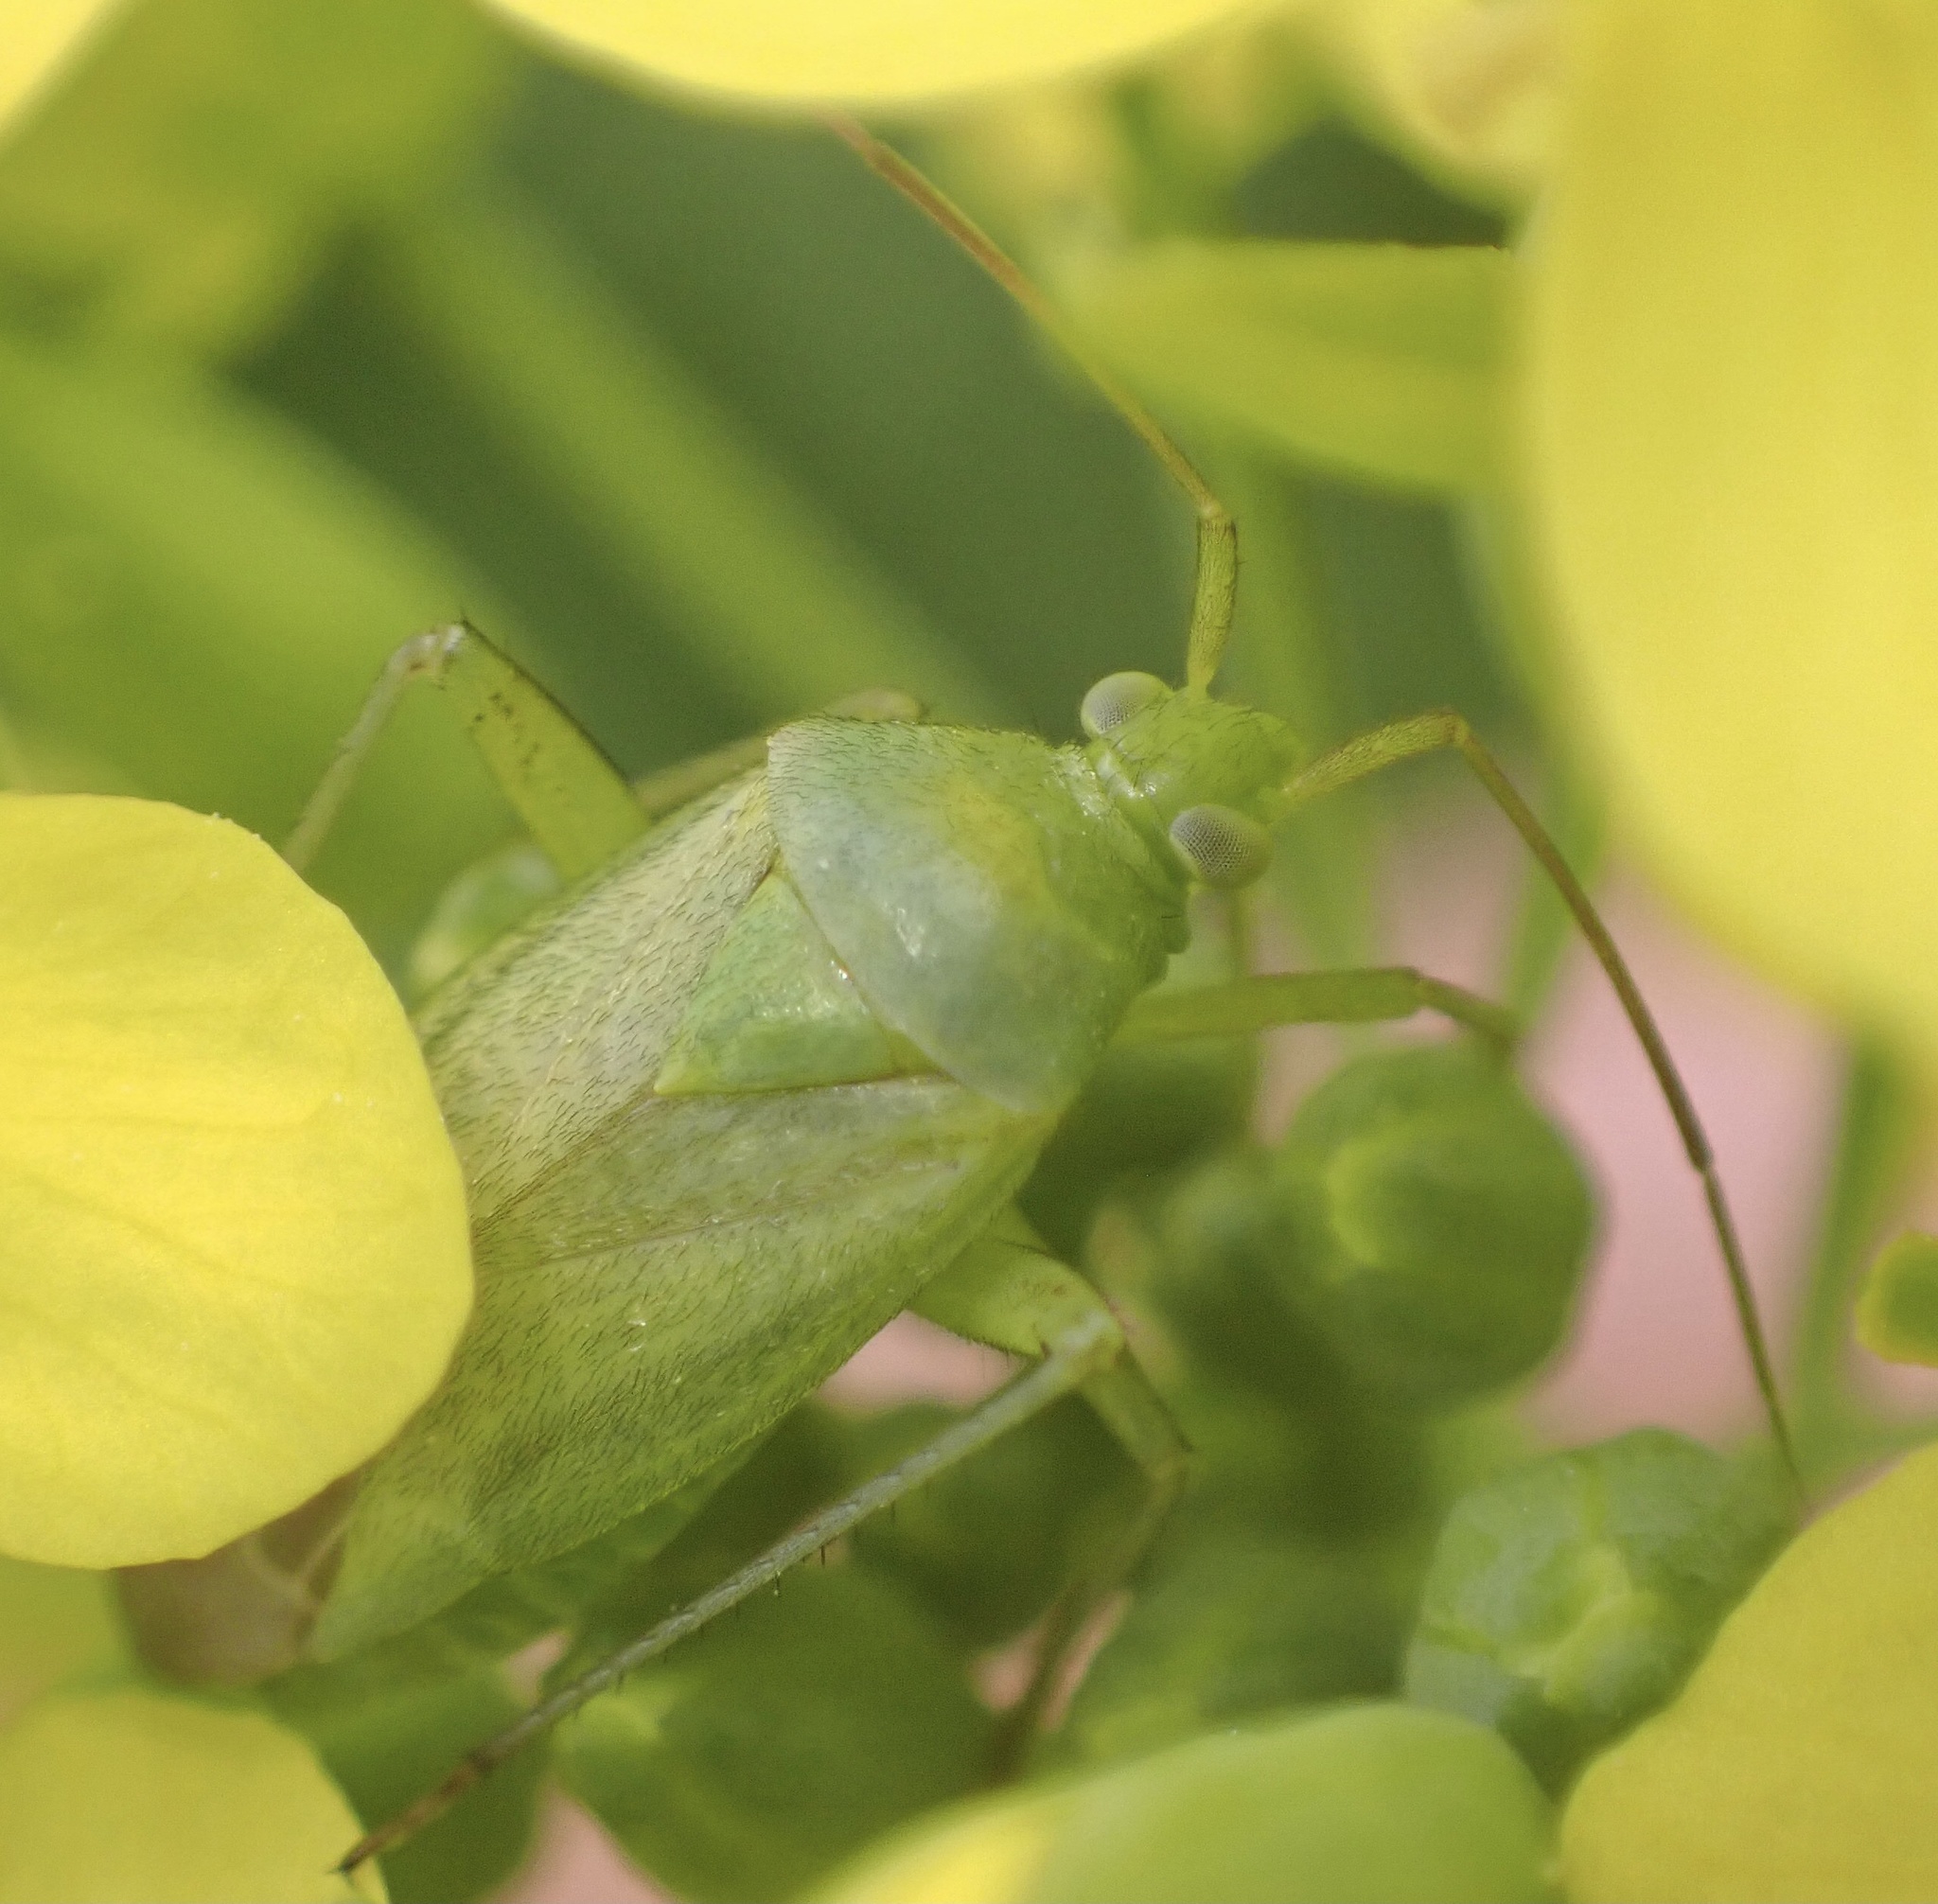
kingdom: Animalia
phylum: Arthropoda
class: Insecta
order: Hemiptera
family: Miridae
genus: Closterotomus
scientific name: Closterotomus norvegicus
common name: Plant bug
